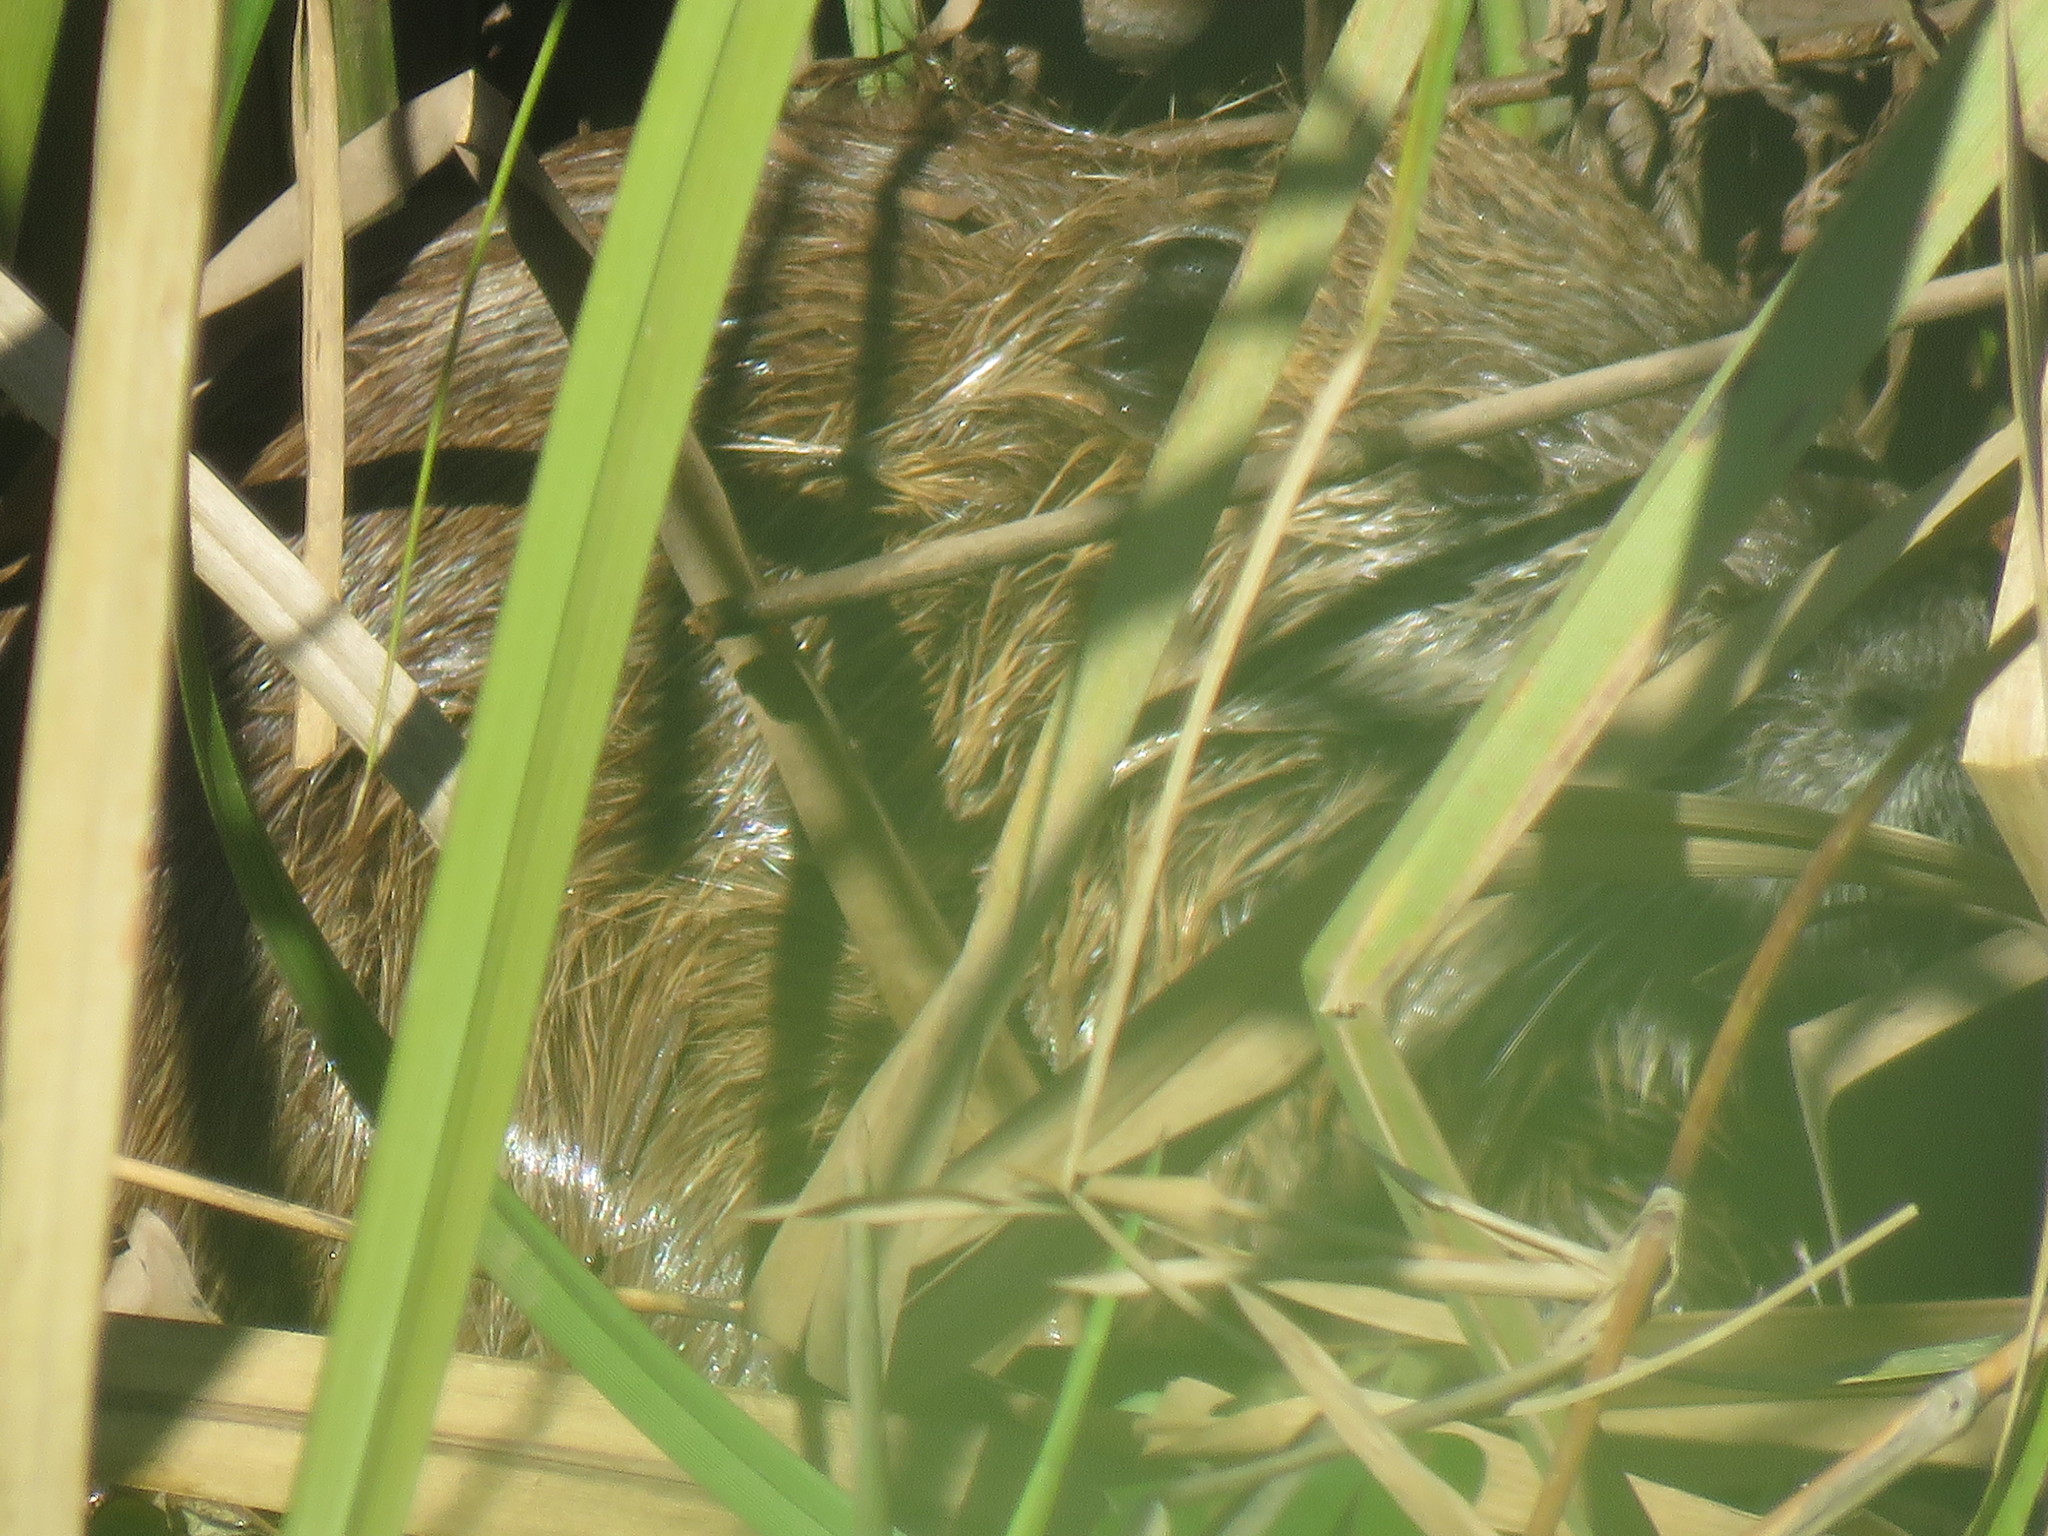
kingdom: Animalia
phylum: Chordata
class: Mammalia
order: Rodentia
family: Myocastoridae
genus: Myocastor
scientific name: Myocastor coypus
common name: Coypu
